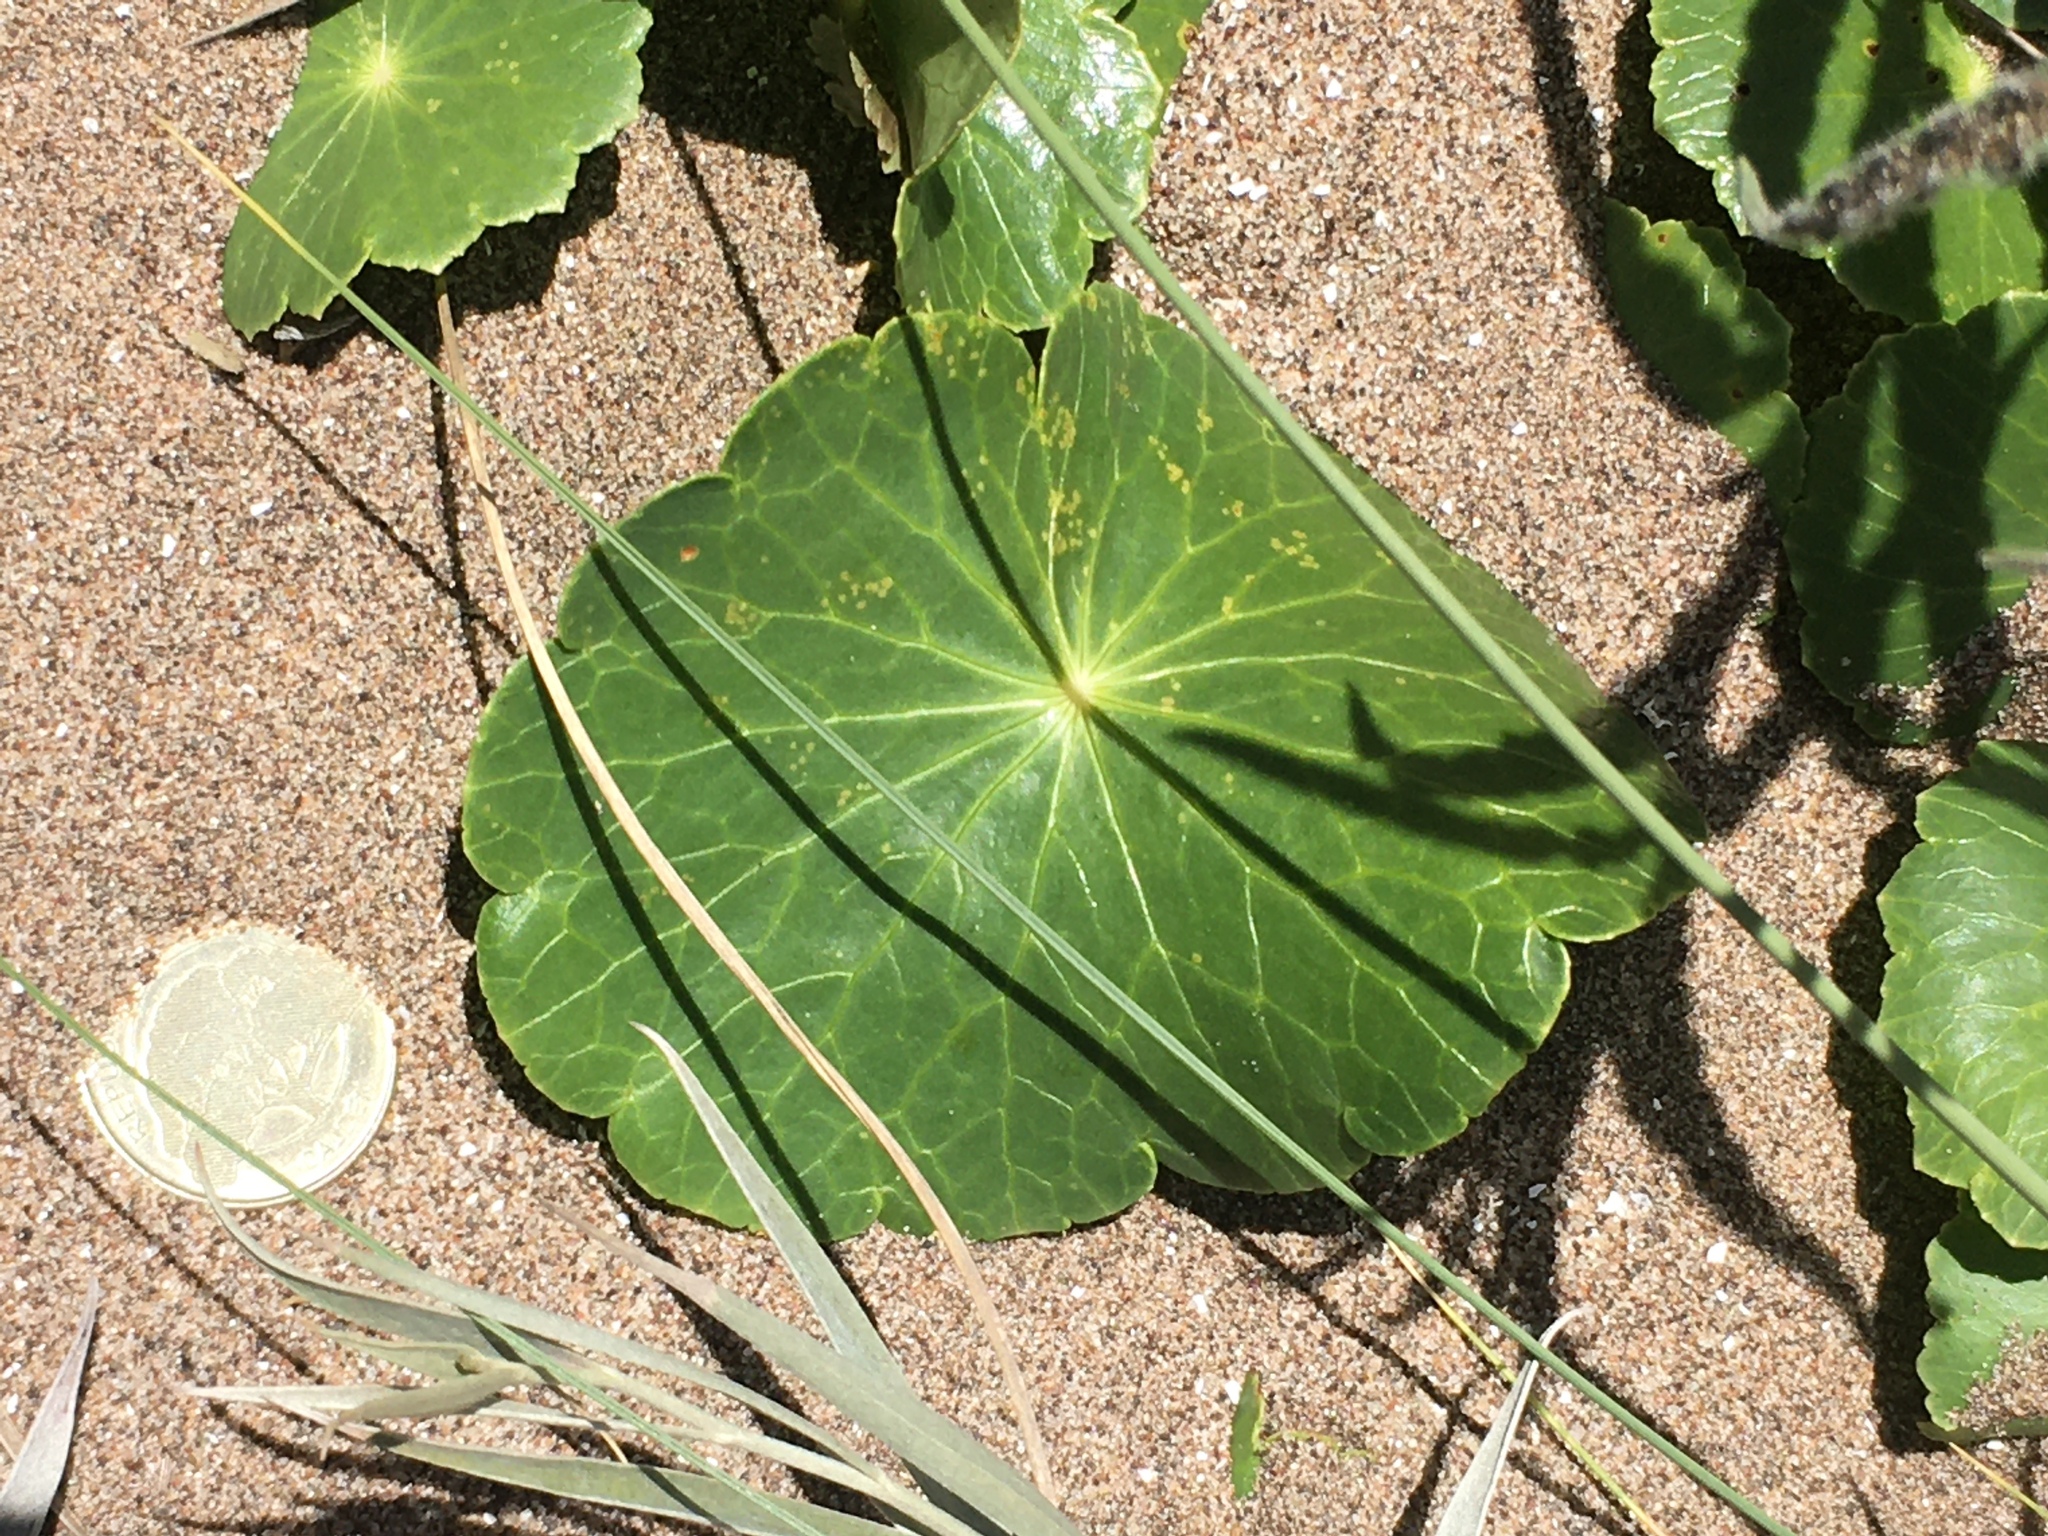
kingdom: Plantae
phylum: Tracheophyta
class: Magnoliopsida
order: Apiales
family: Araliaceae
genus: Hydrocotyle
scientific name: Hydrocotyle bonariensis
